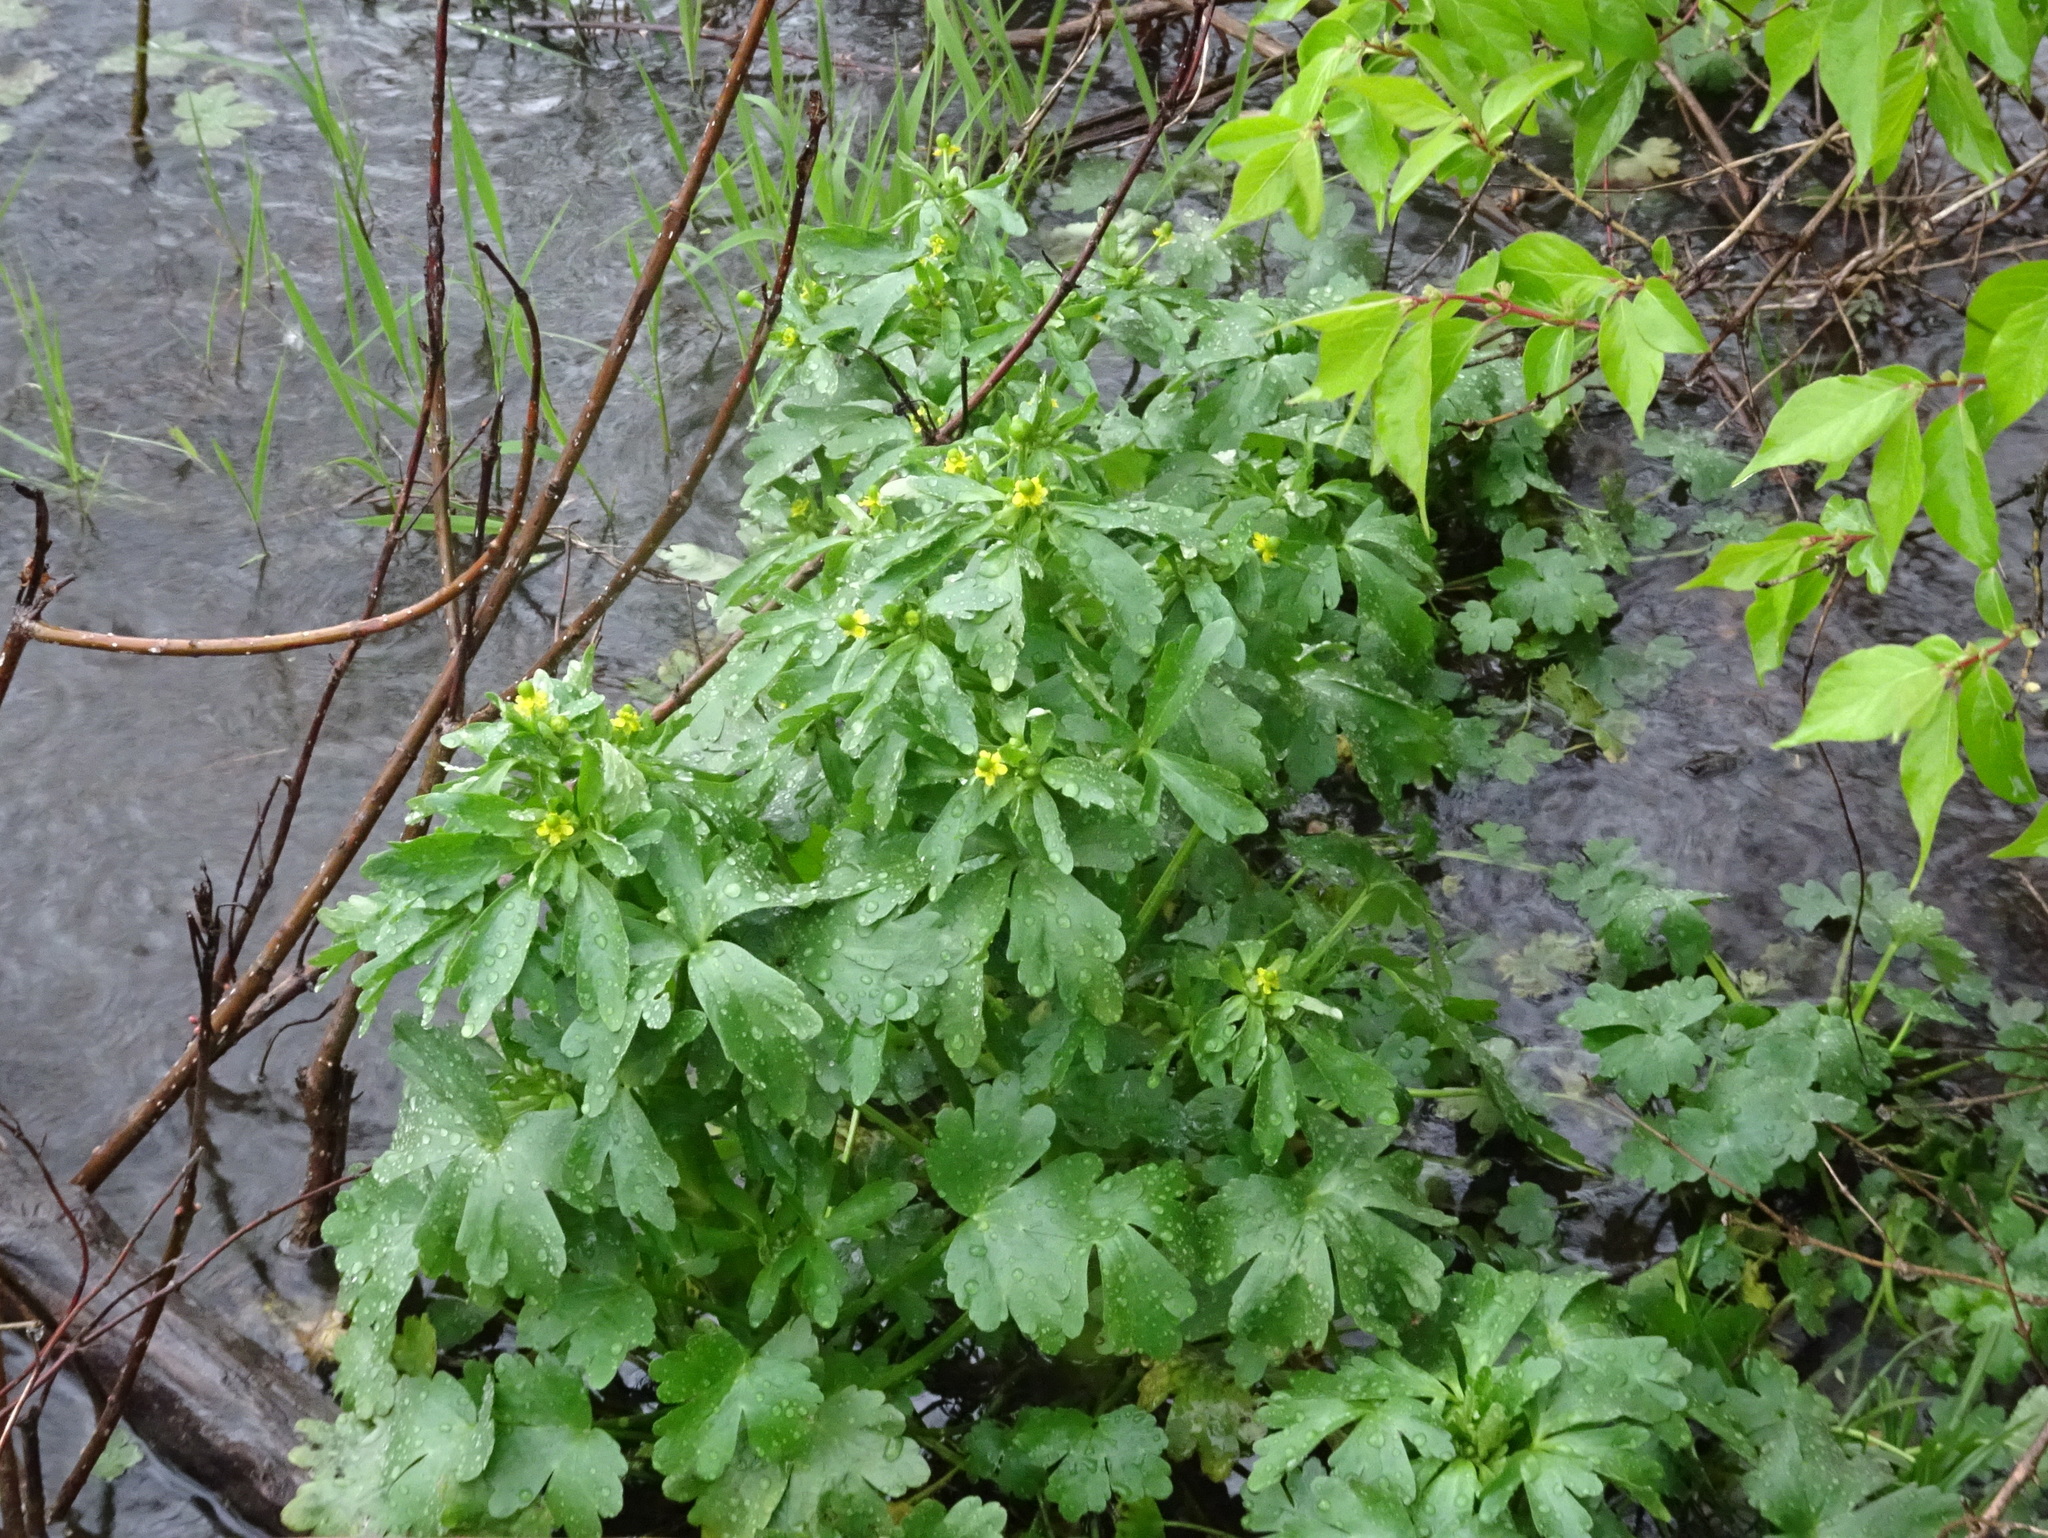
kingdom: Plantae
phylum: Tracheophyta
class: Magnoliopsida
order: Ranunculales
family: Ranunculaceae
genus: Ranunculus
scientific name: Ranunculus sceleratus
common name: Celery-leaved buttercup
